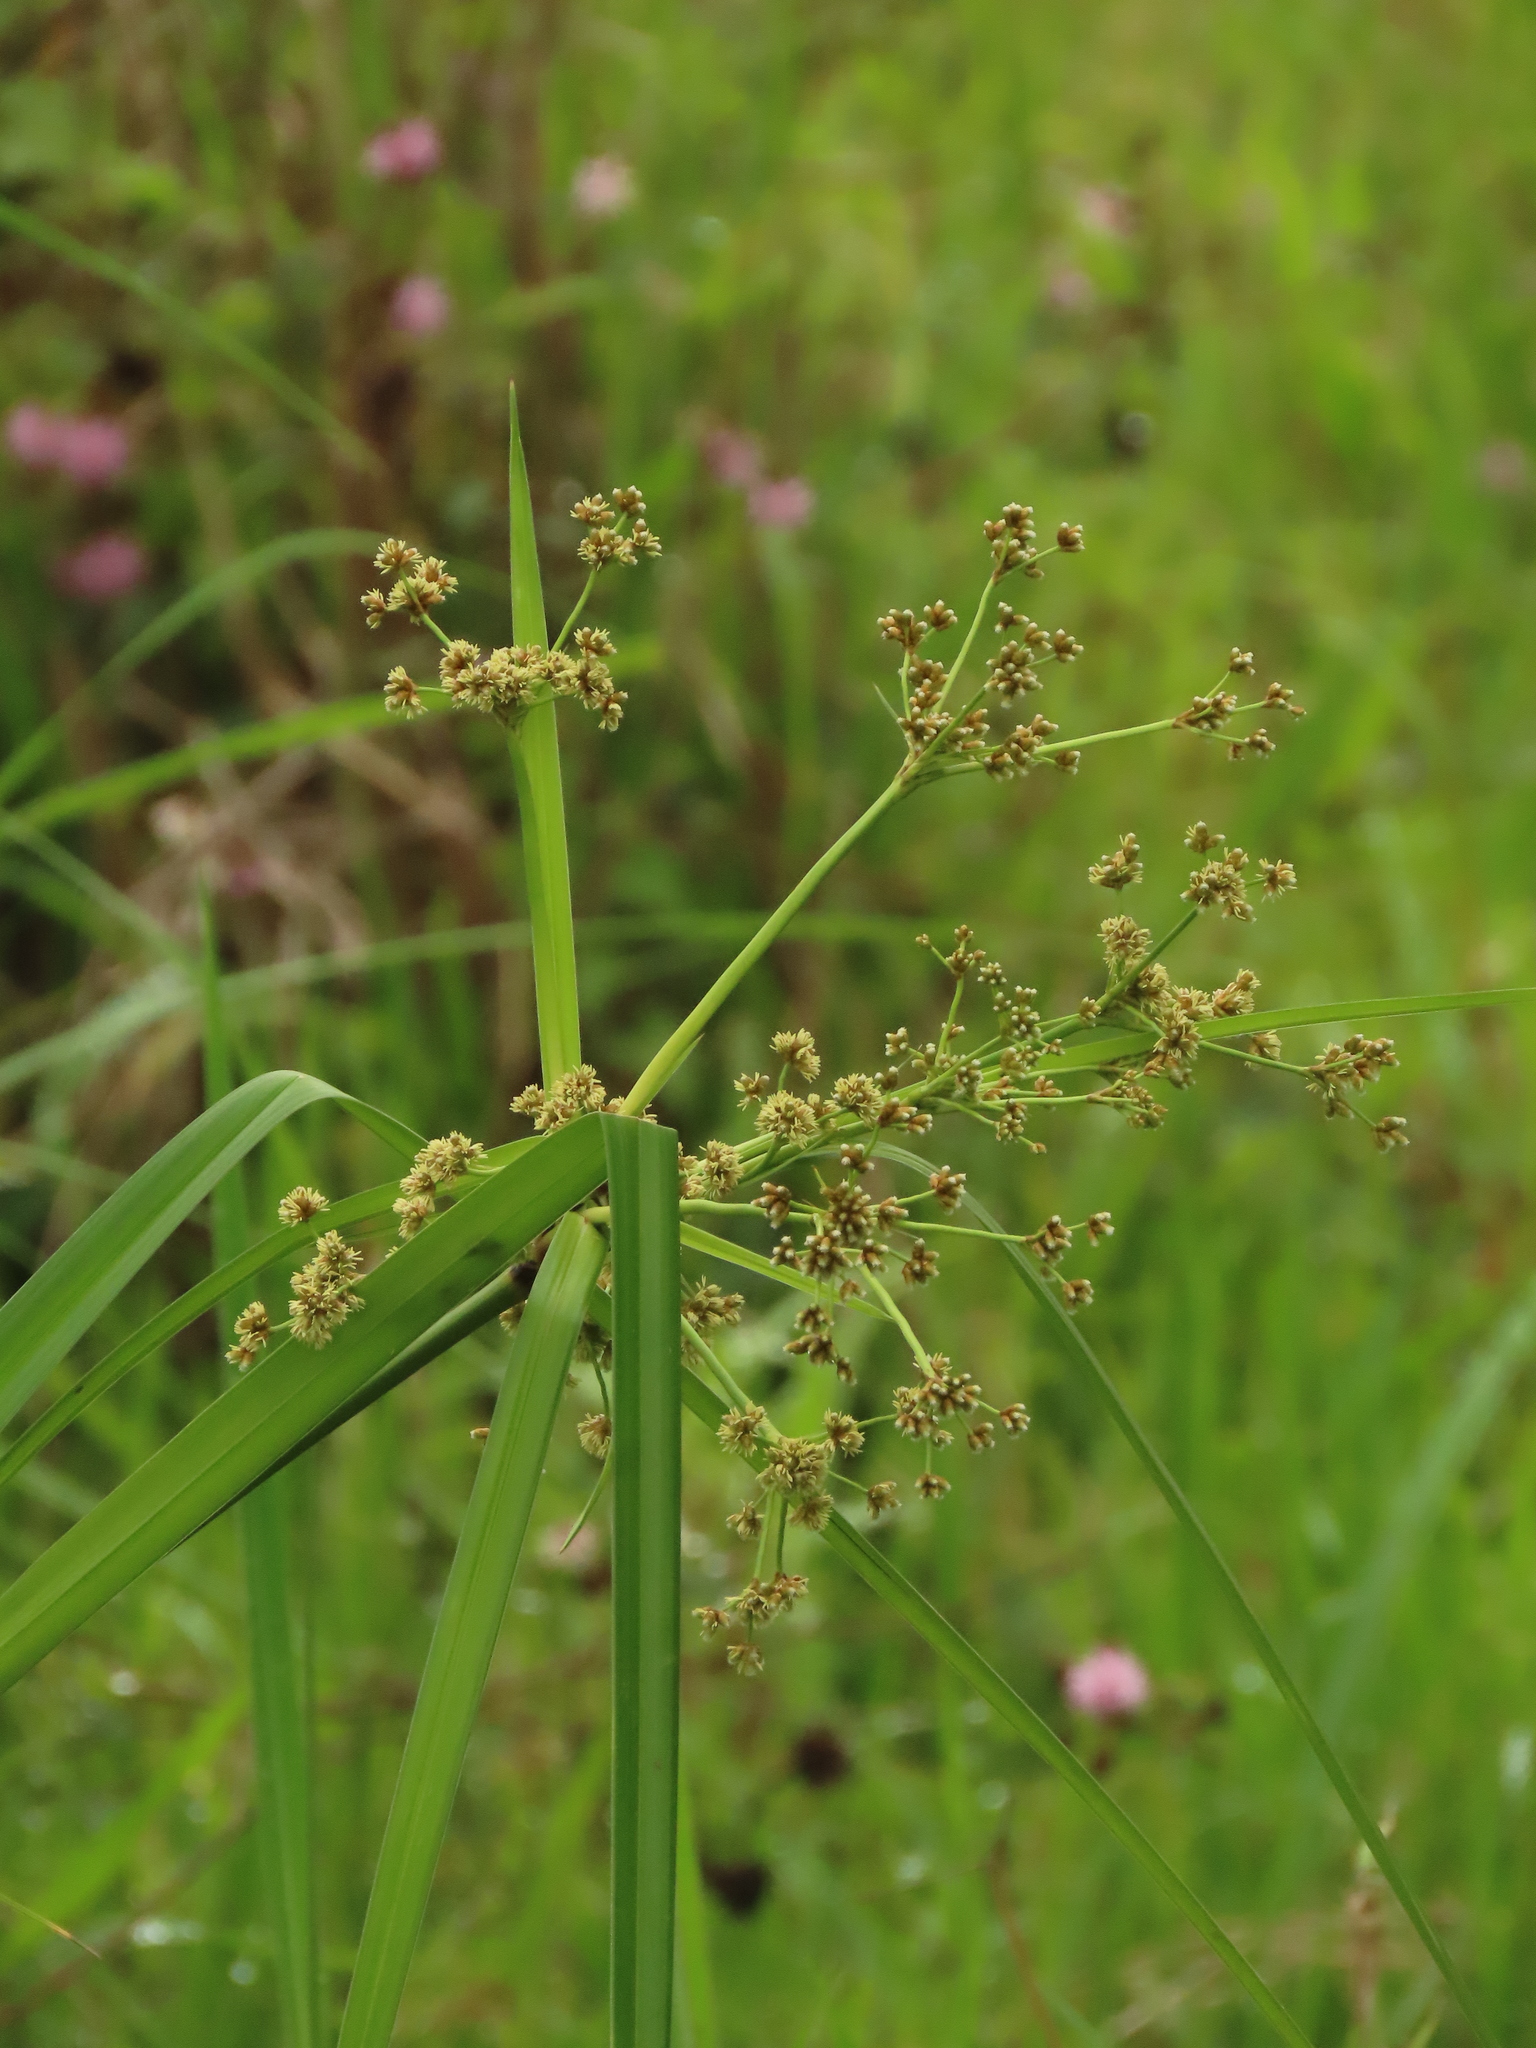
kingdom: Plantae
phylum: Tracheophyta
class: Liliopsida
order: Poales
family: Cyperaceae
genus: Scirpus
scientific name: Scirpus ternatanus
